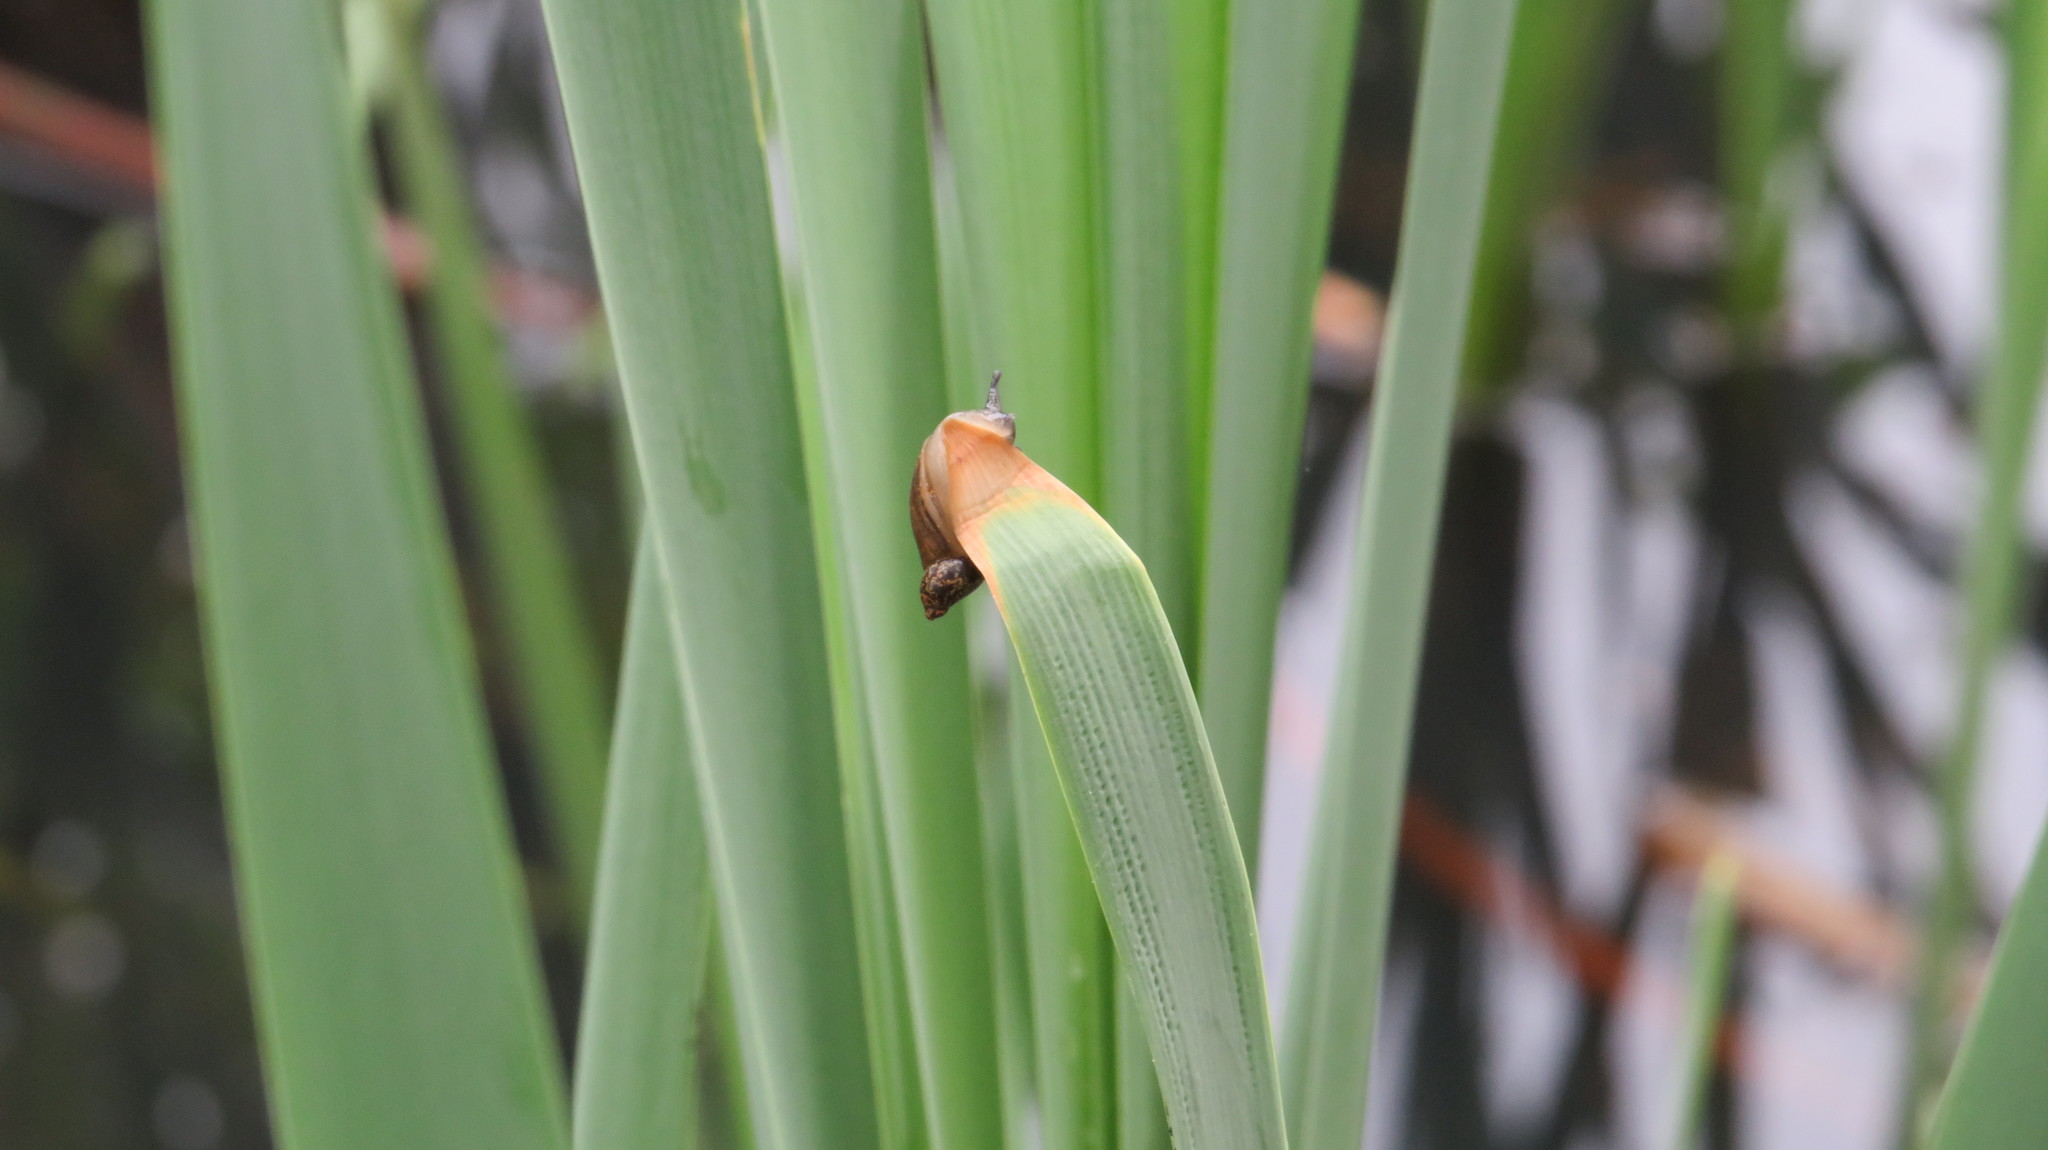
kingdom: Animalia
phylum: Mollusca
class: Gastropoda
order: Stylommatophora
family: Succineidae
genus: Succinea
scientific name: Succinea putris
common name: European ambersnail
